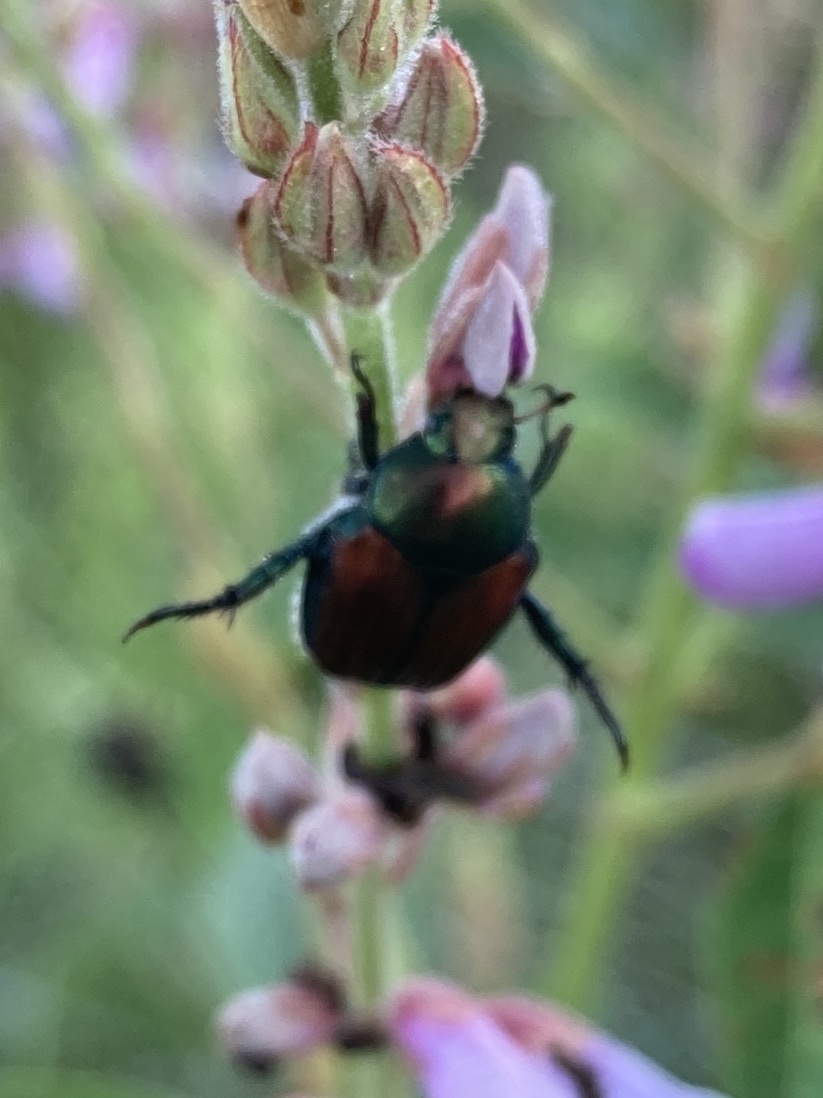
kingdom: Animalia
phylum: Arthropoda
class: Insecta
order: Coleoptera
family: Scarabaeidae
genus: Popillia
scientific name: Popillia japonica
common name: Japanese beetle
